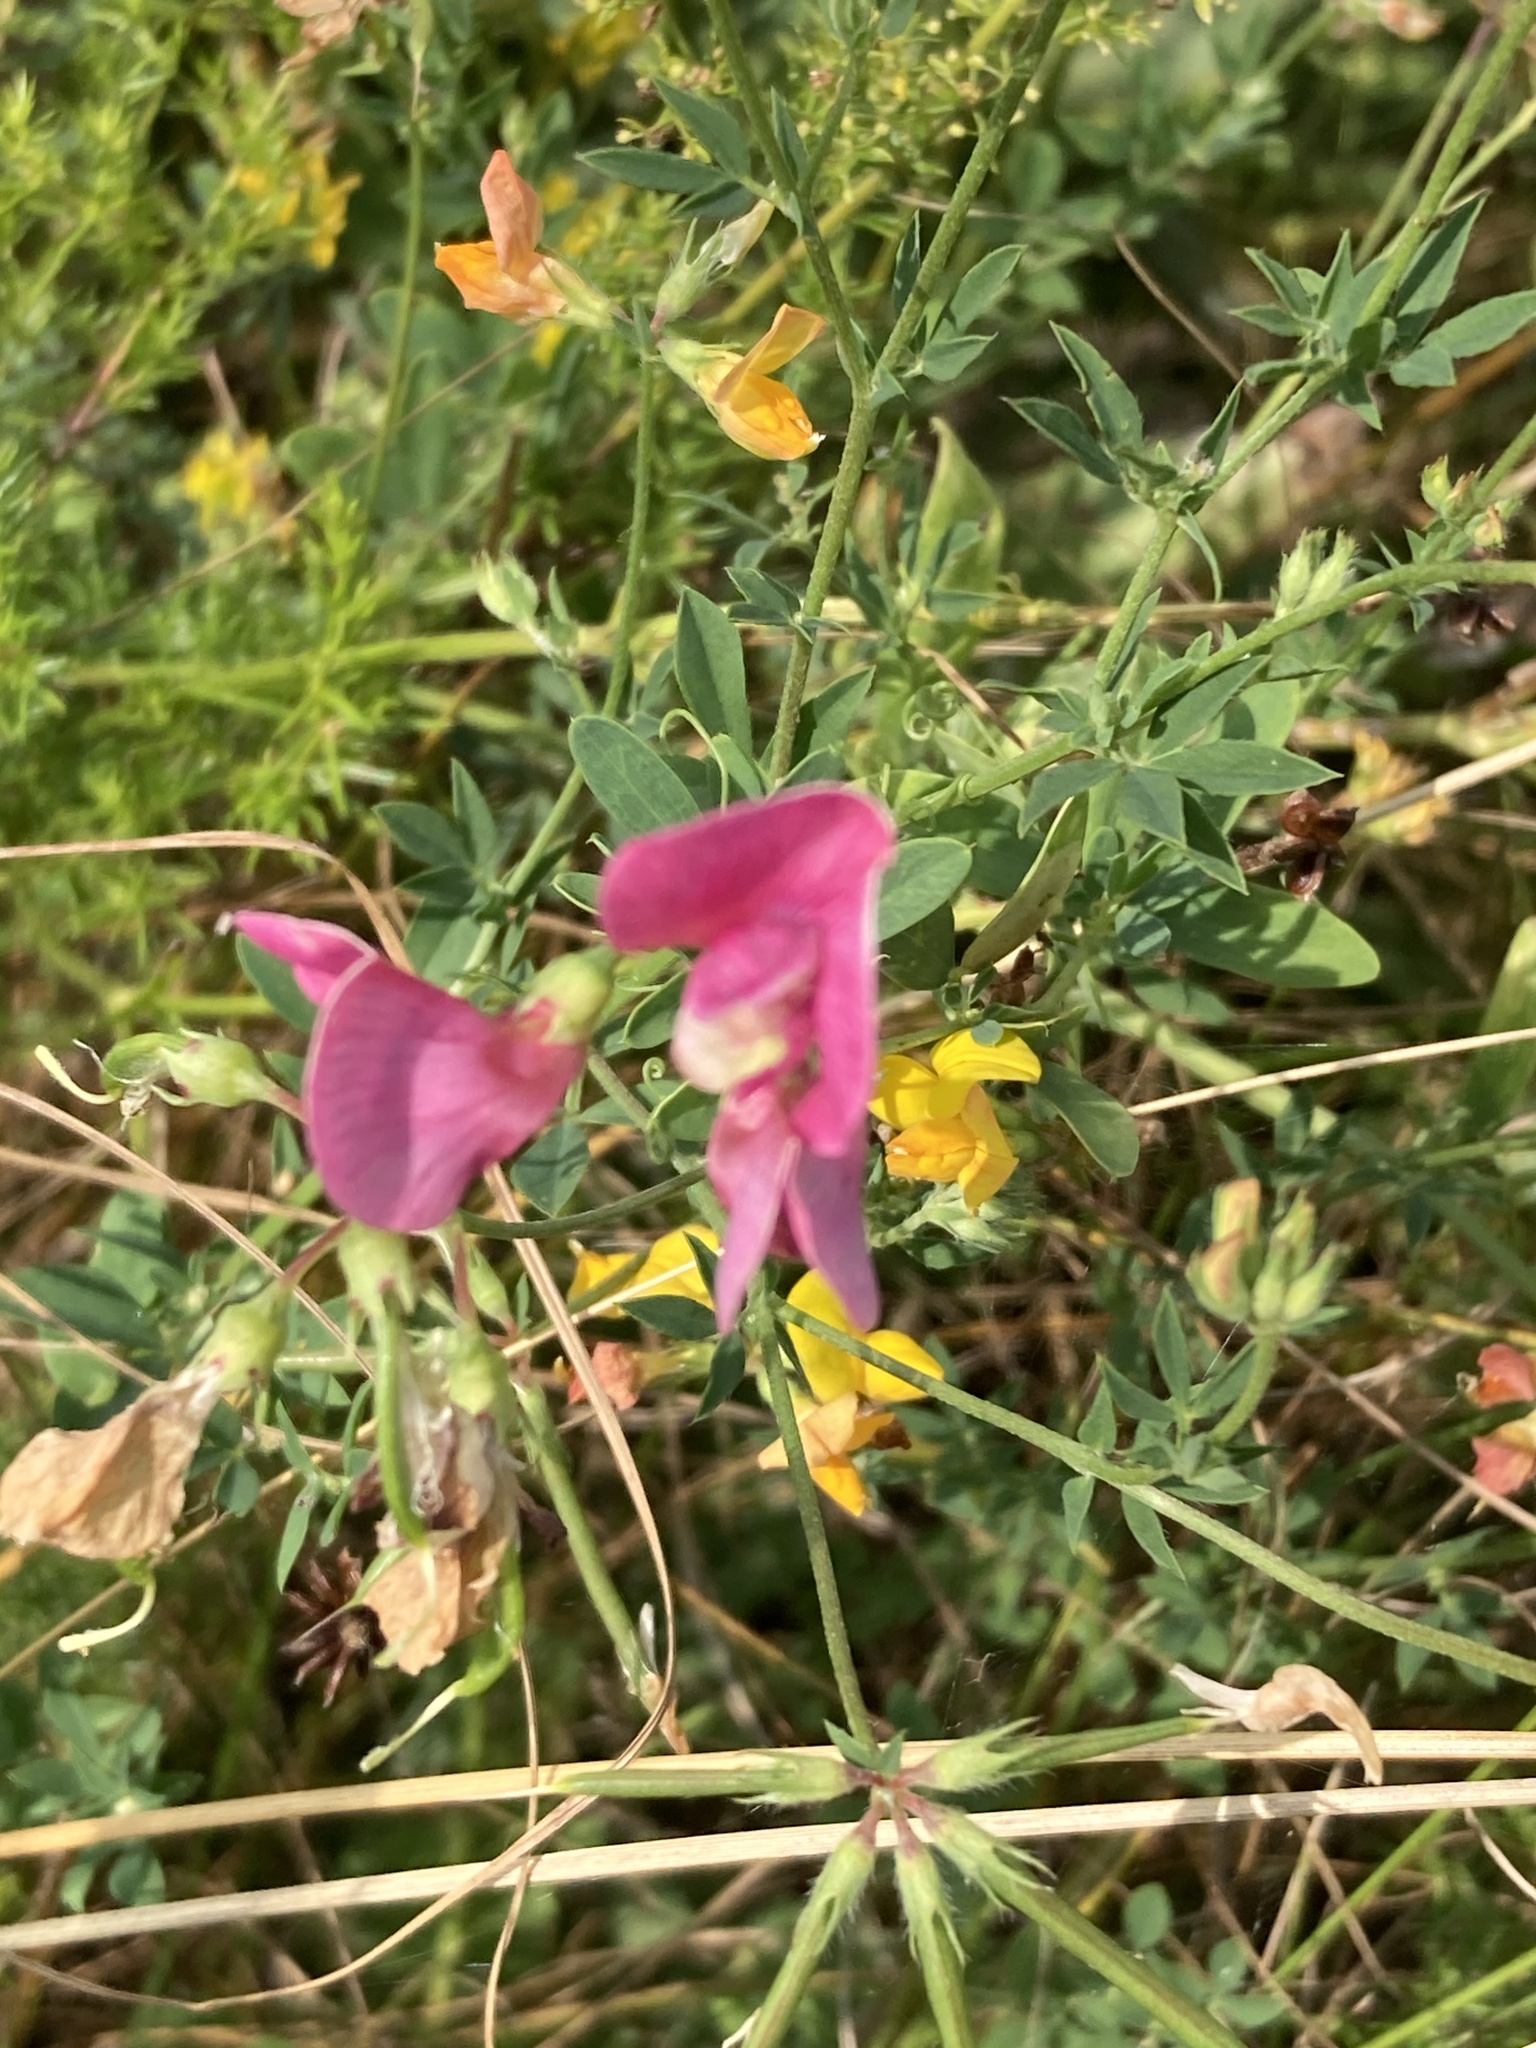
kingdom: Plantae
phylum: Tracheophyta
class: Magnoliopsida
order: Fabales
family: Fabaceae
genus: Lathyrus
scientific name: Lathyrus tuberosus
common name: Tuberous pea
